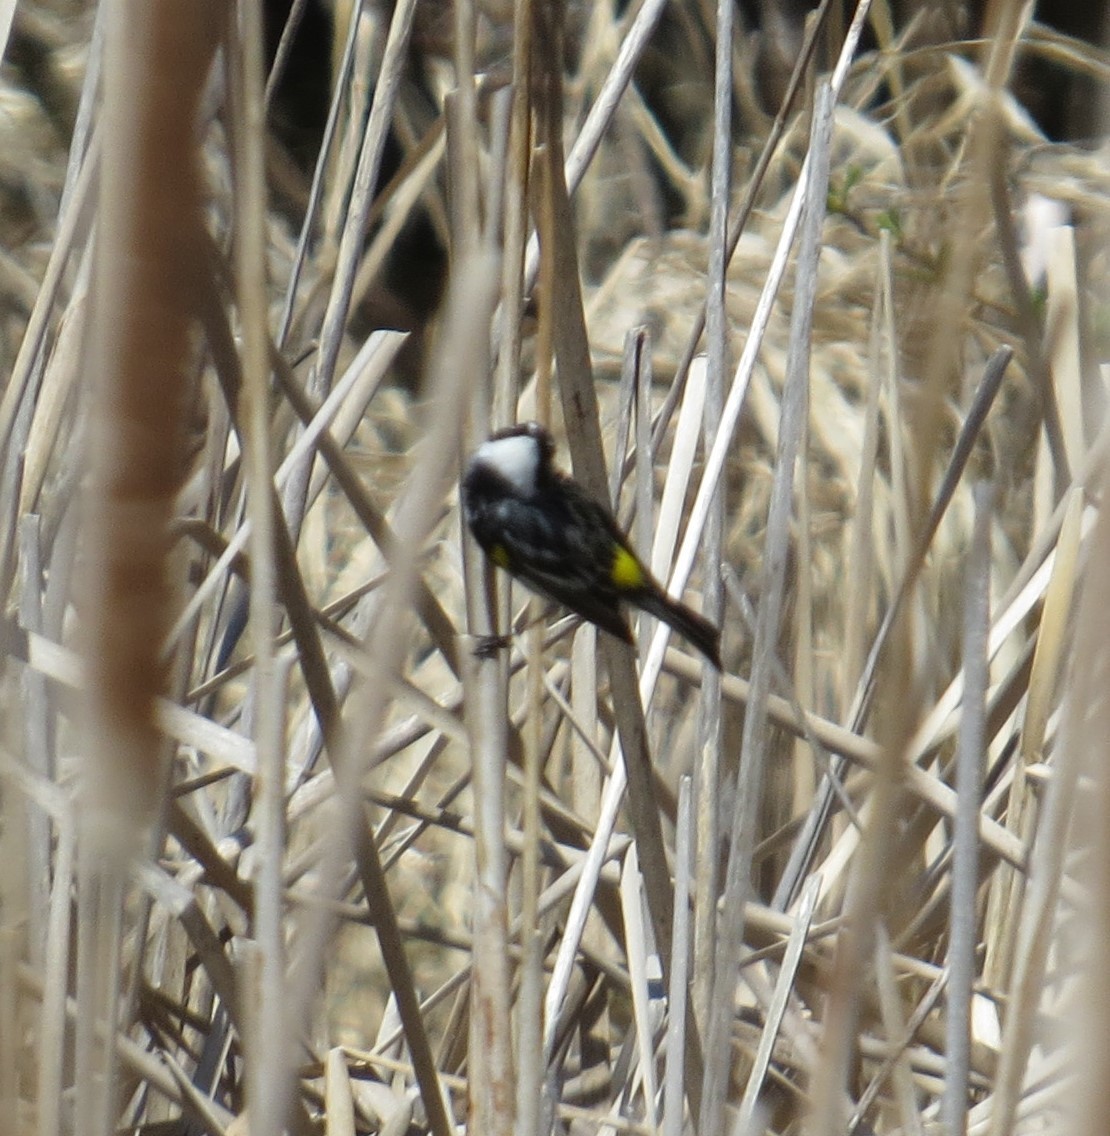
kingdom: Animalia
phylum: Chordata
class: Aves
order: Passeriformes
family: Parulidae
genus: Setophaga
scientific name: Setophaga coronata
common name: Myrtle warbler
